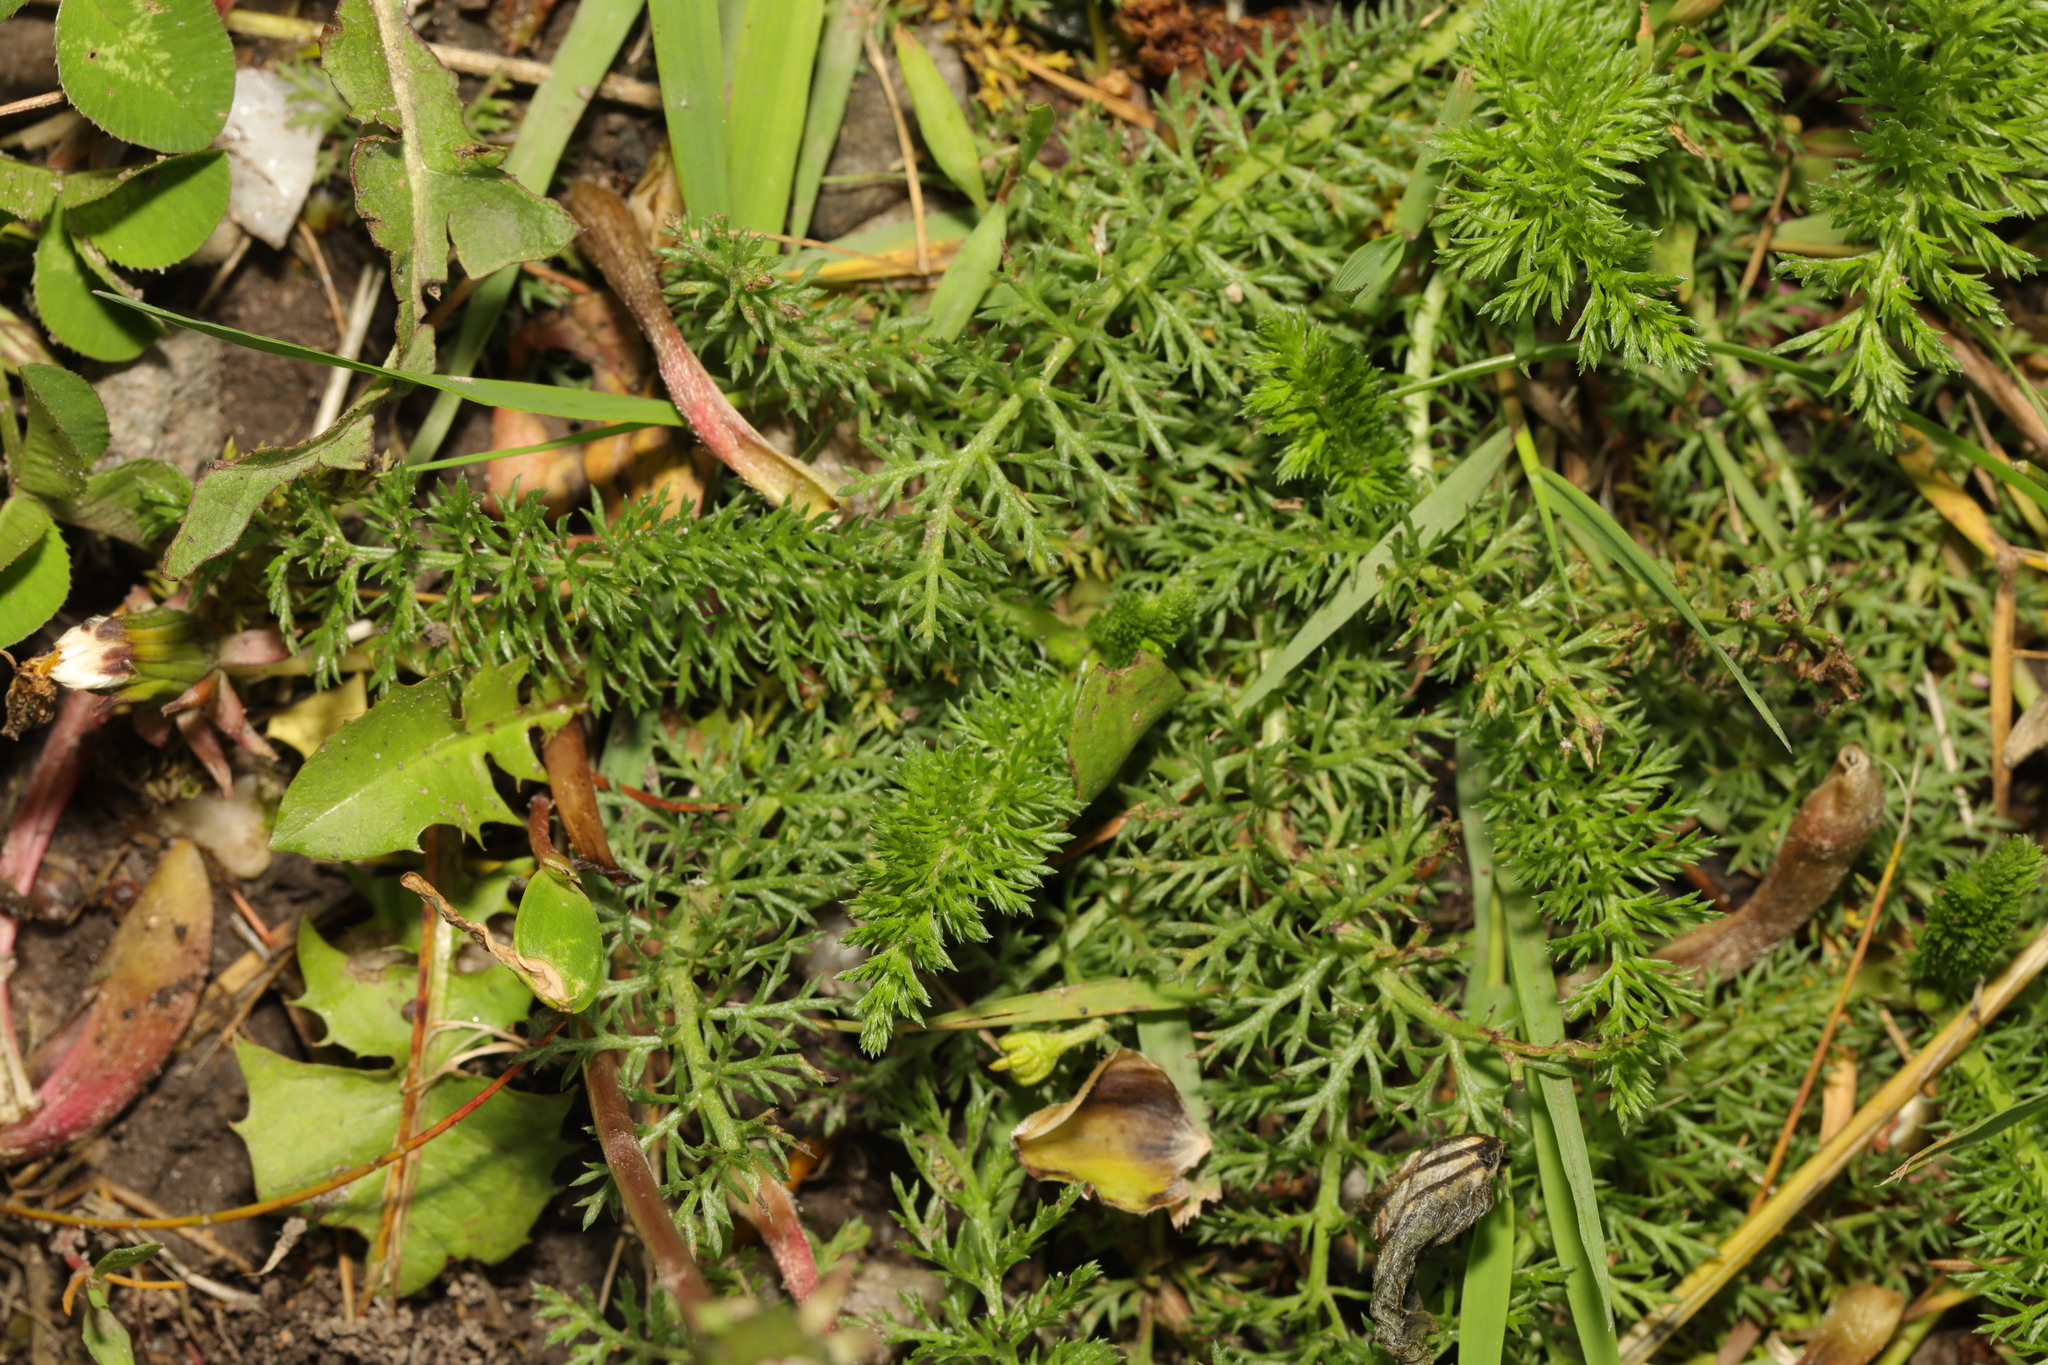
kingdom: Plantae
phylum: Tracheophyta
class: Magnoliopsida
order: Asterales
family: Asteraceae
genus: Achillea
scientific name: Achillea millefolium
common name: Yarrow
